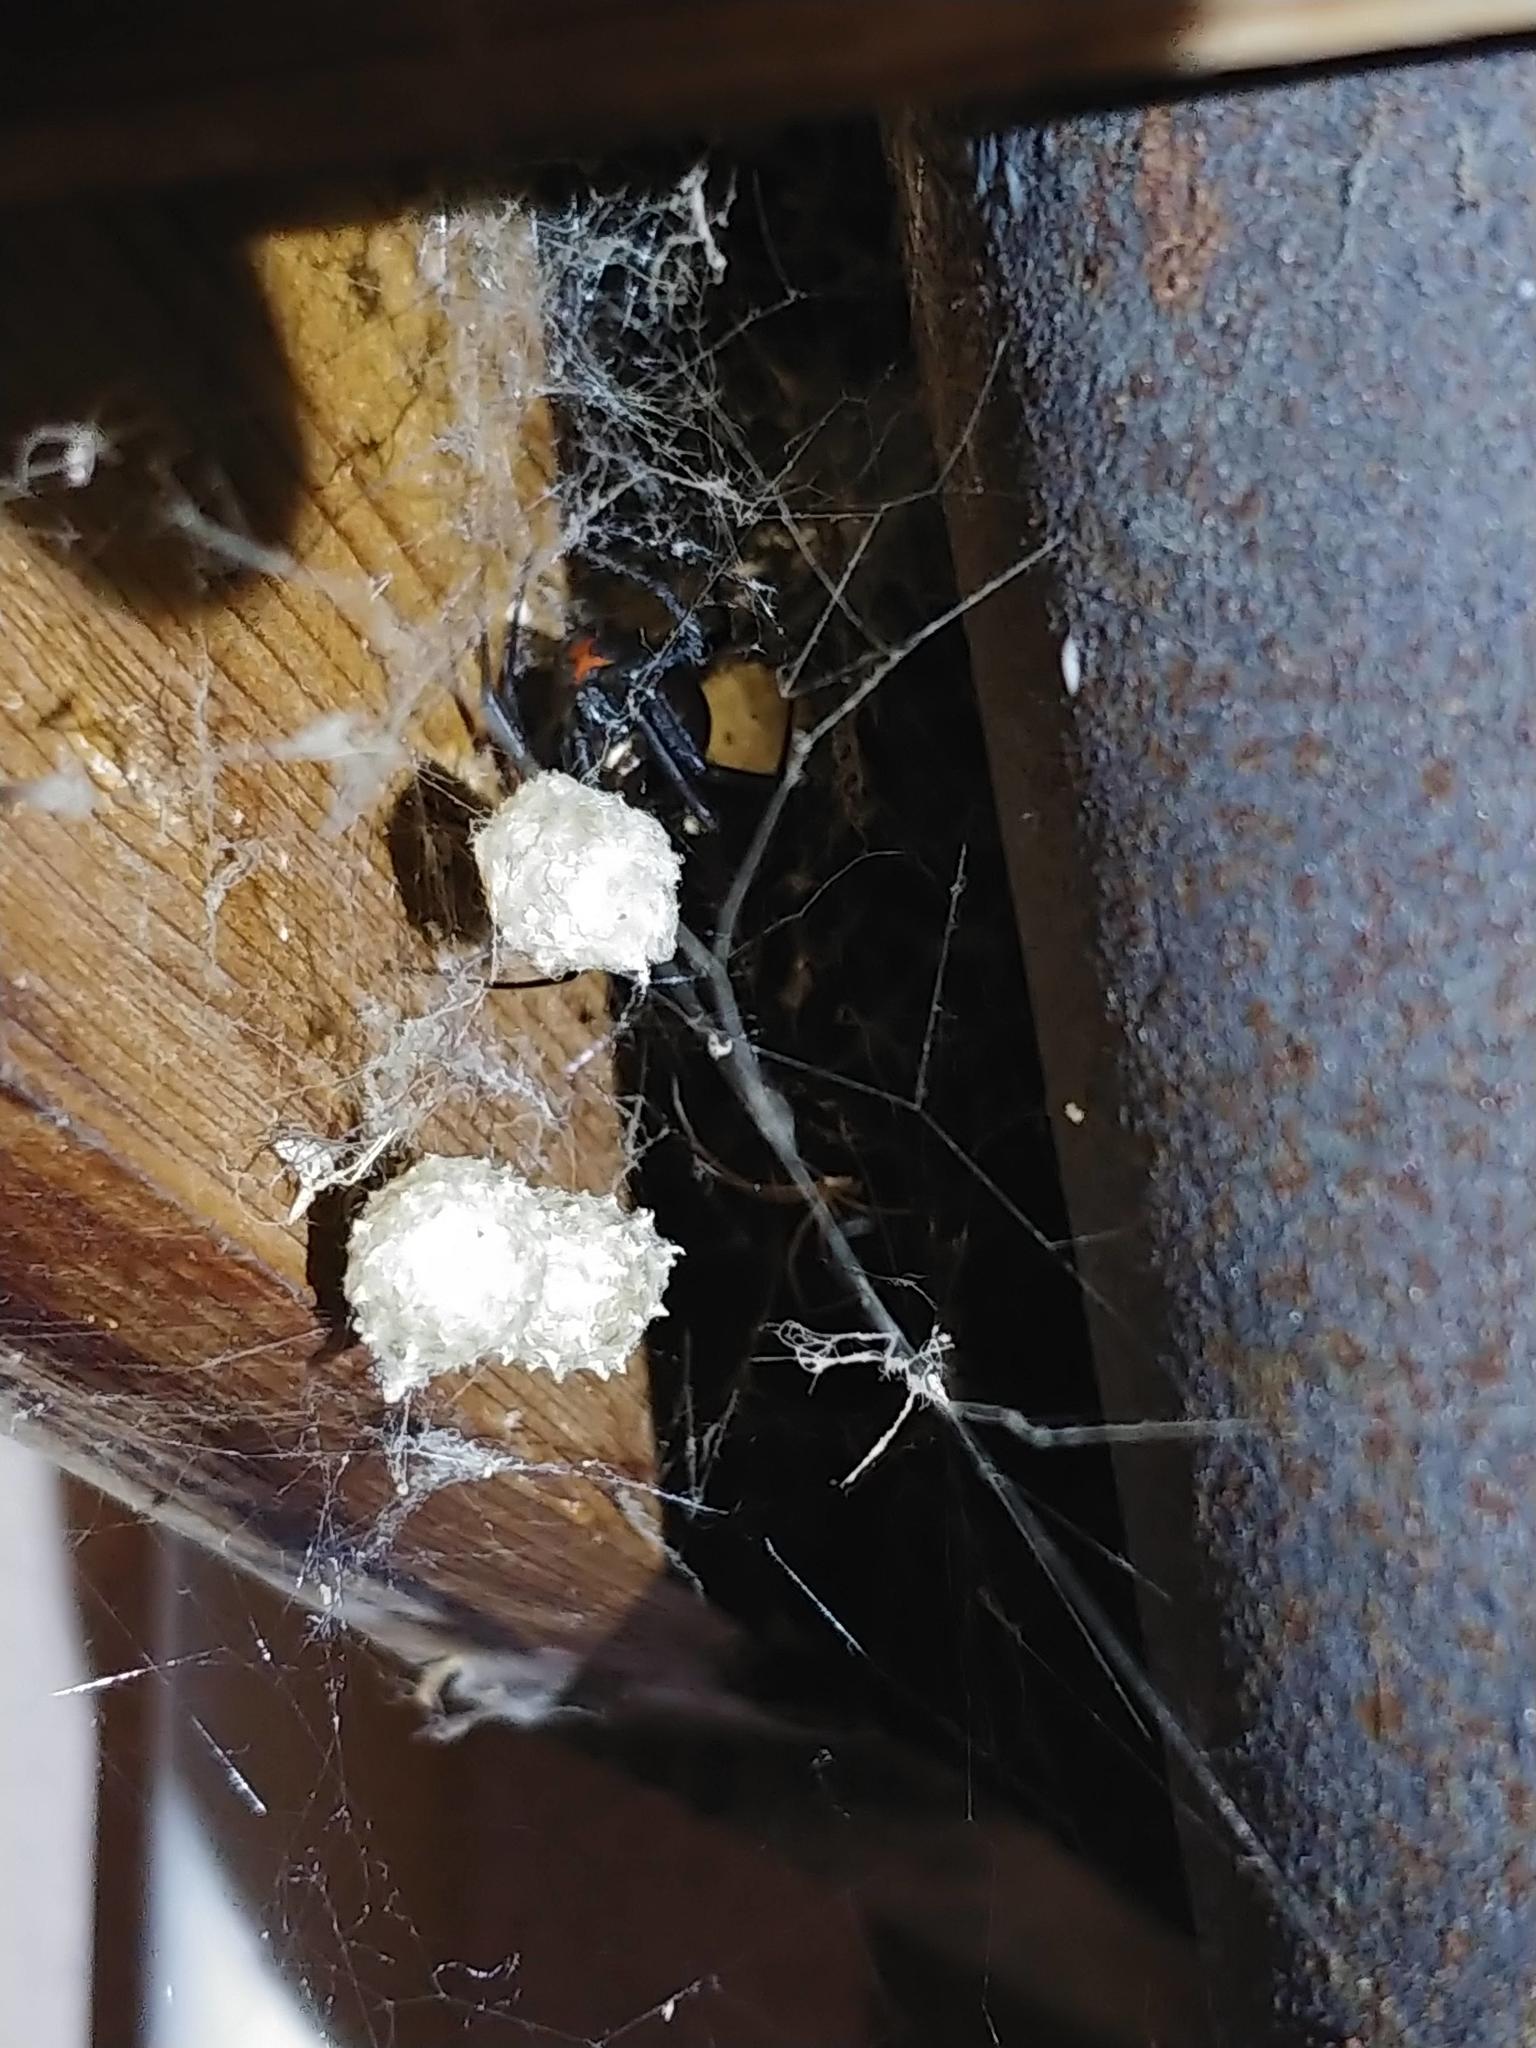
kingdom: Animalia
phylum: Arthropoda
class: Arachnida
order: Araneae
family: Theridiidae
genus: Latrodectus
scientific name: Latrodectus hesperus
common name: Western black widow
